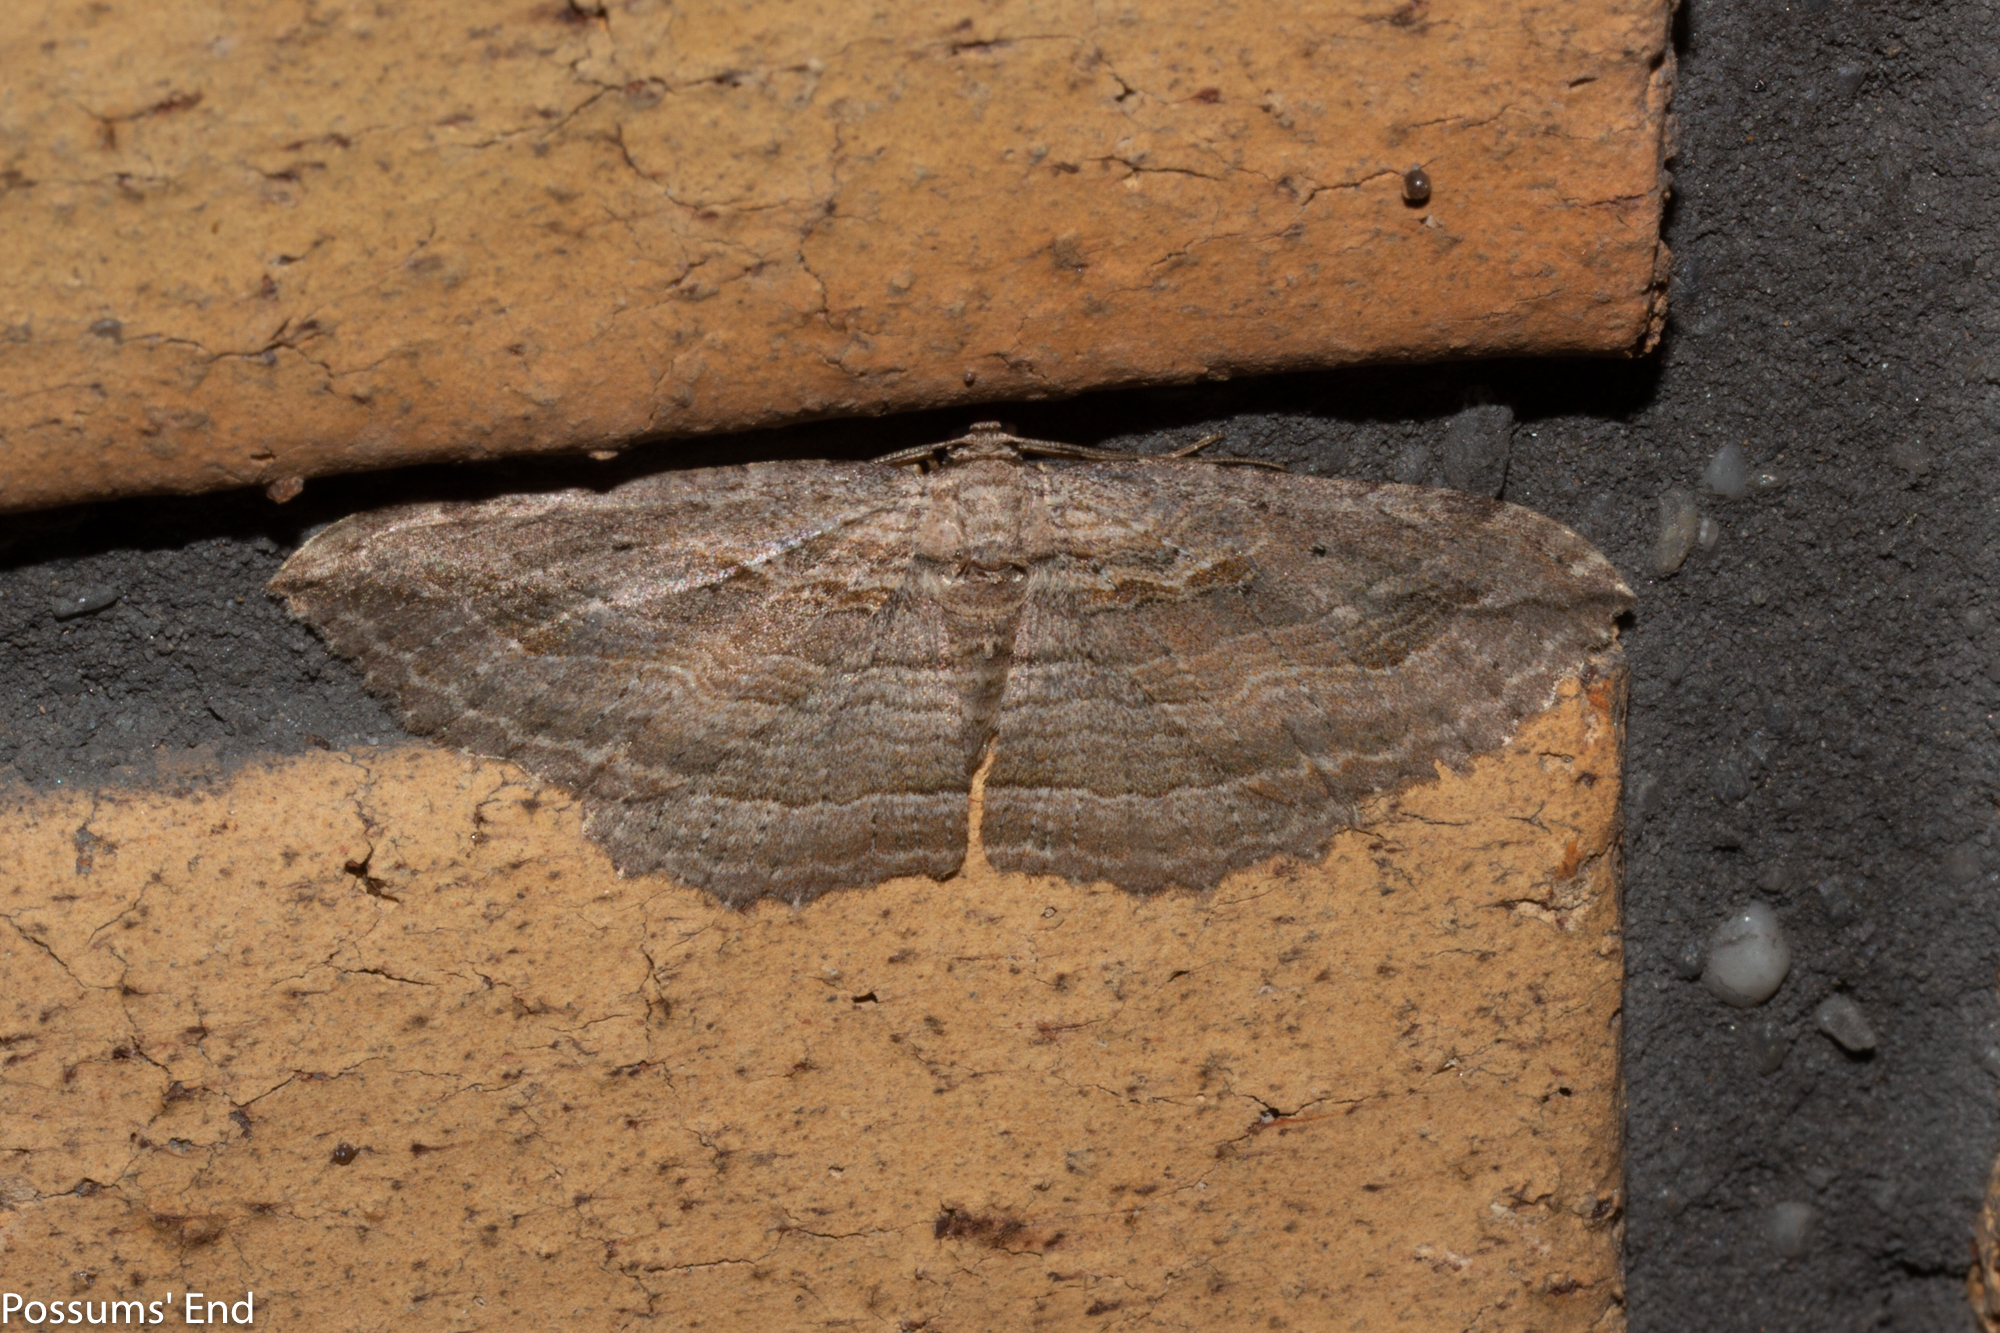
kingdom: Animalia
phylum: Arthropoda
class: Insecta
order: Lepidoptera
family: Geometridae
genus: Austrocidaria
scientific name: Austrocidaria gobiata
